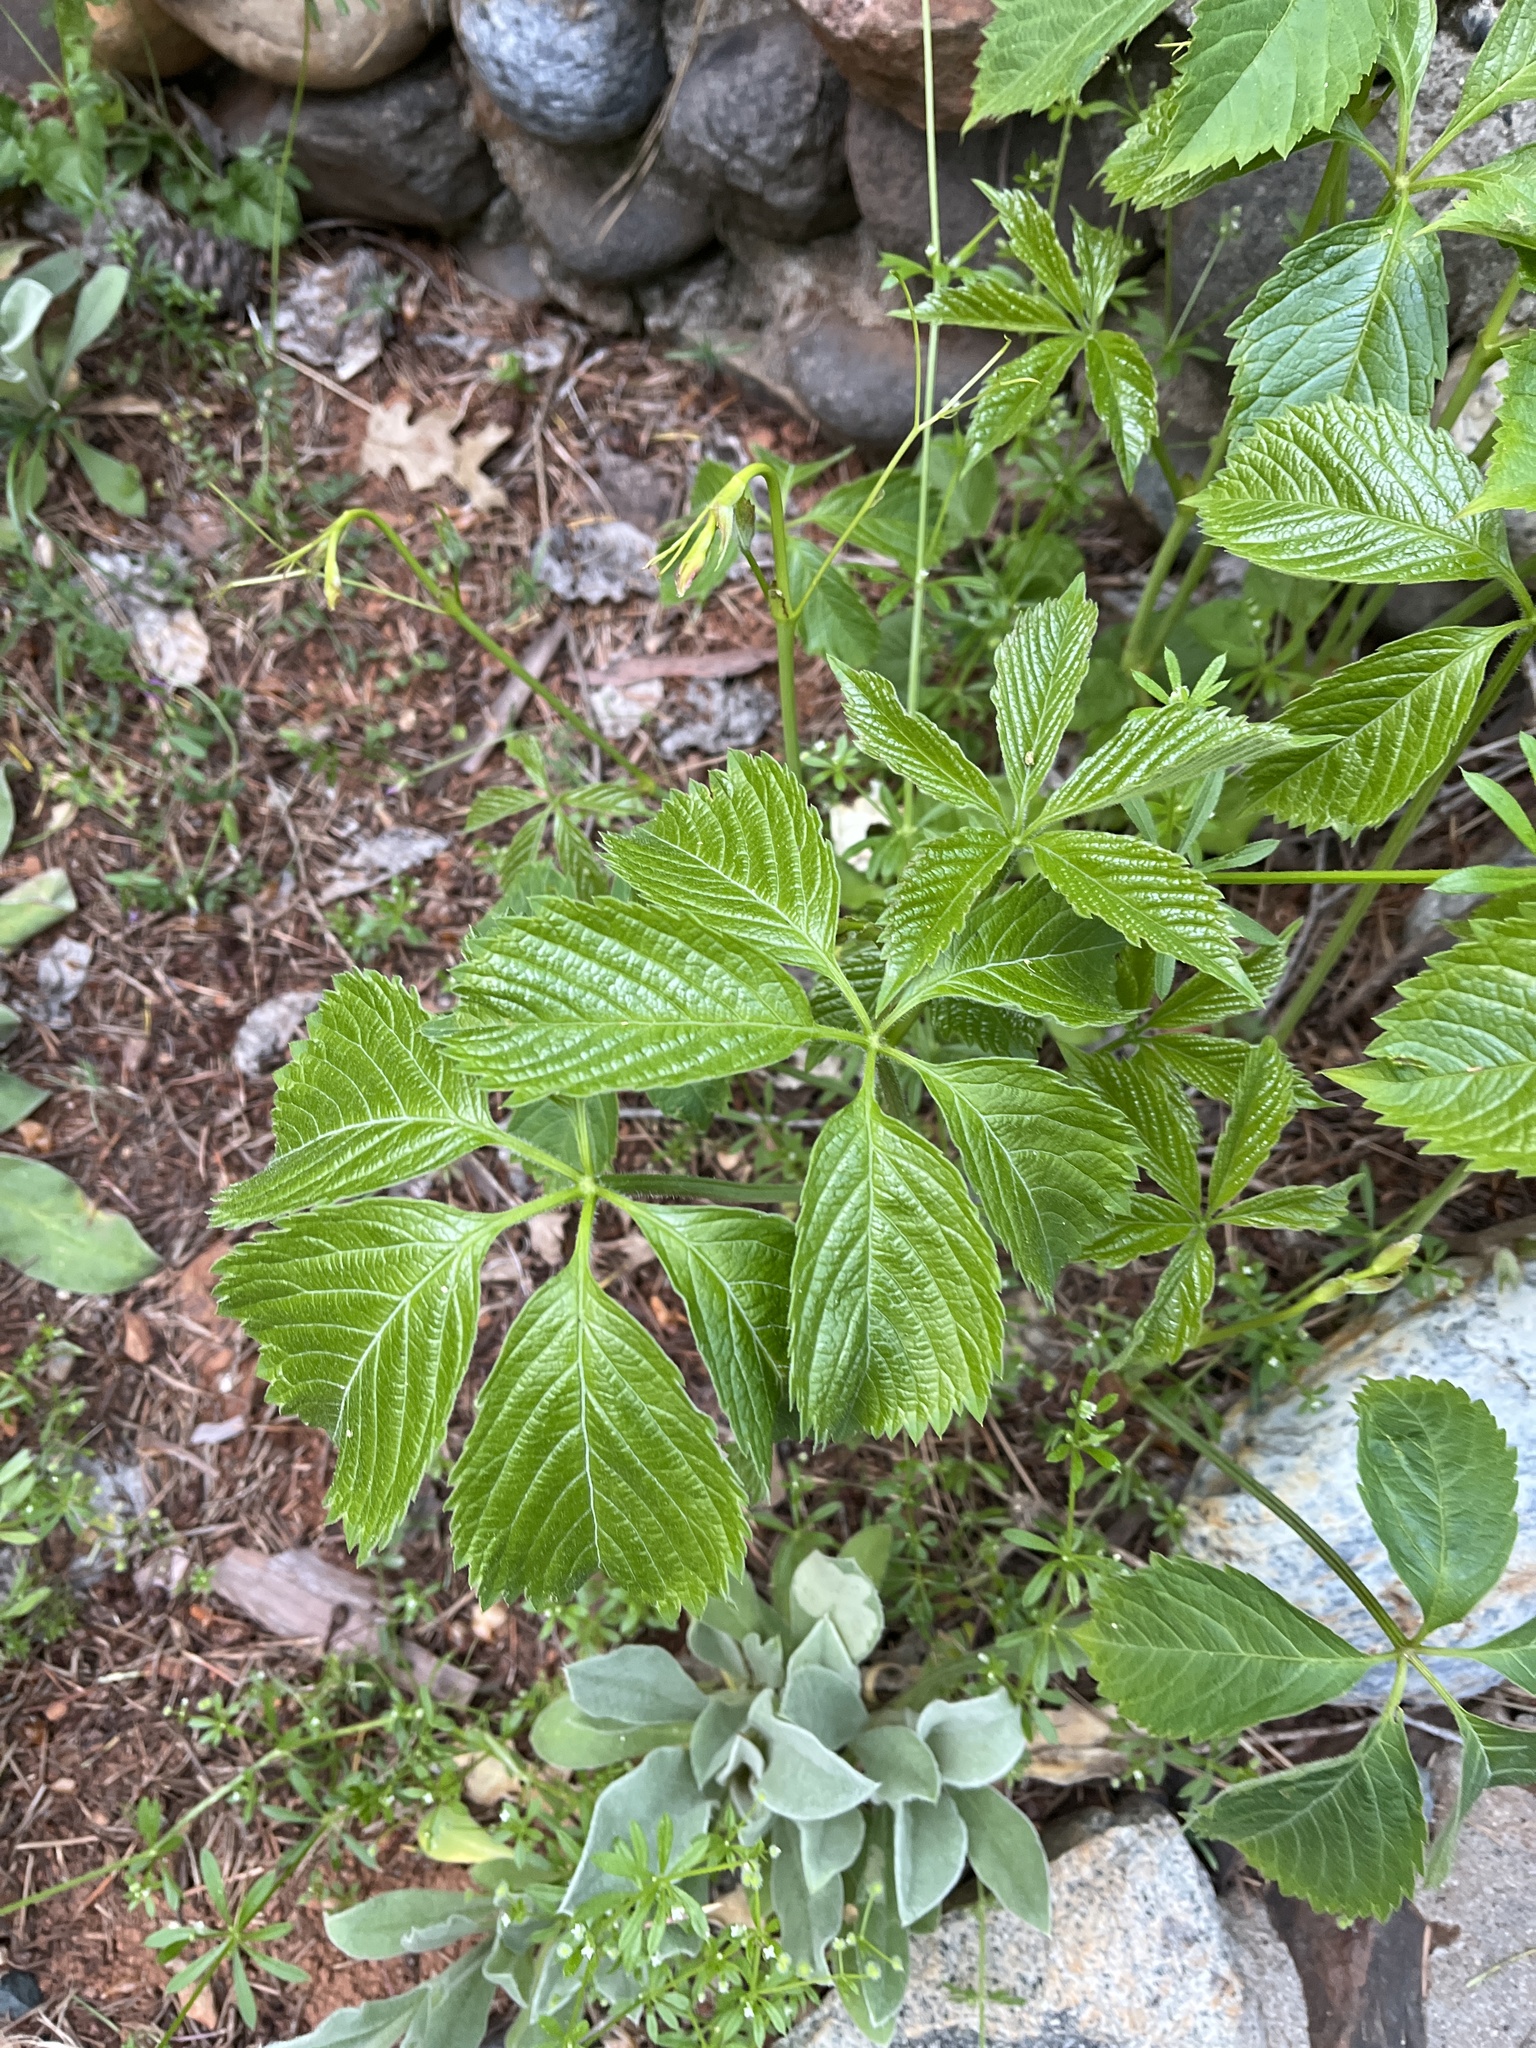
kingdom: Plantae
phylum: Tracheophyta
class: Magnoliopsida
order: Vitales
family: Vitaceae
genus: Parthenocissus
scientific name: Parthenocissus quinquefolia
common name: Virginia-creeper
